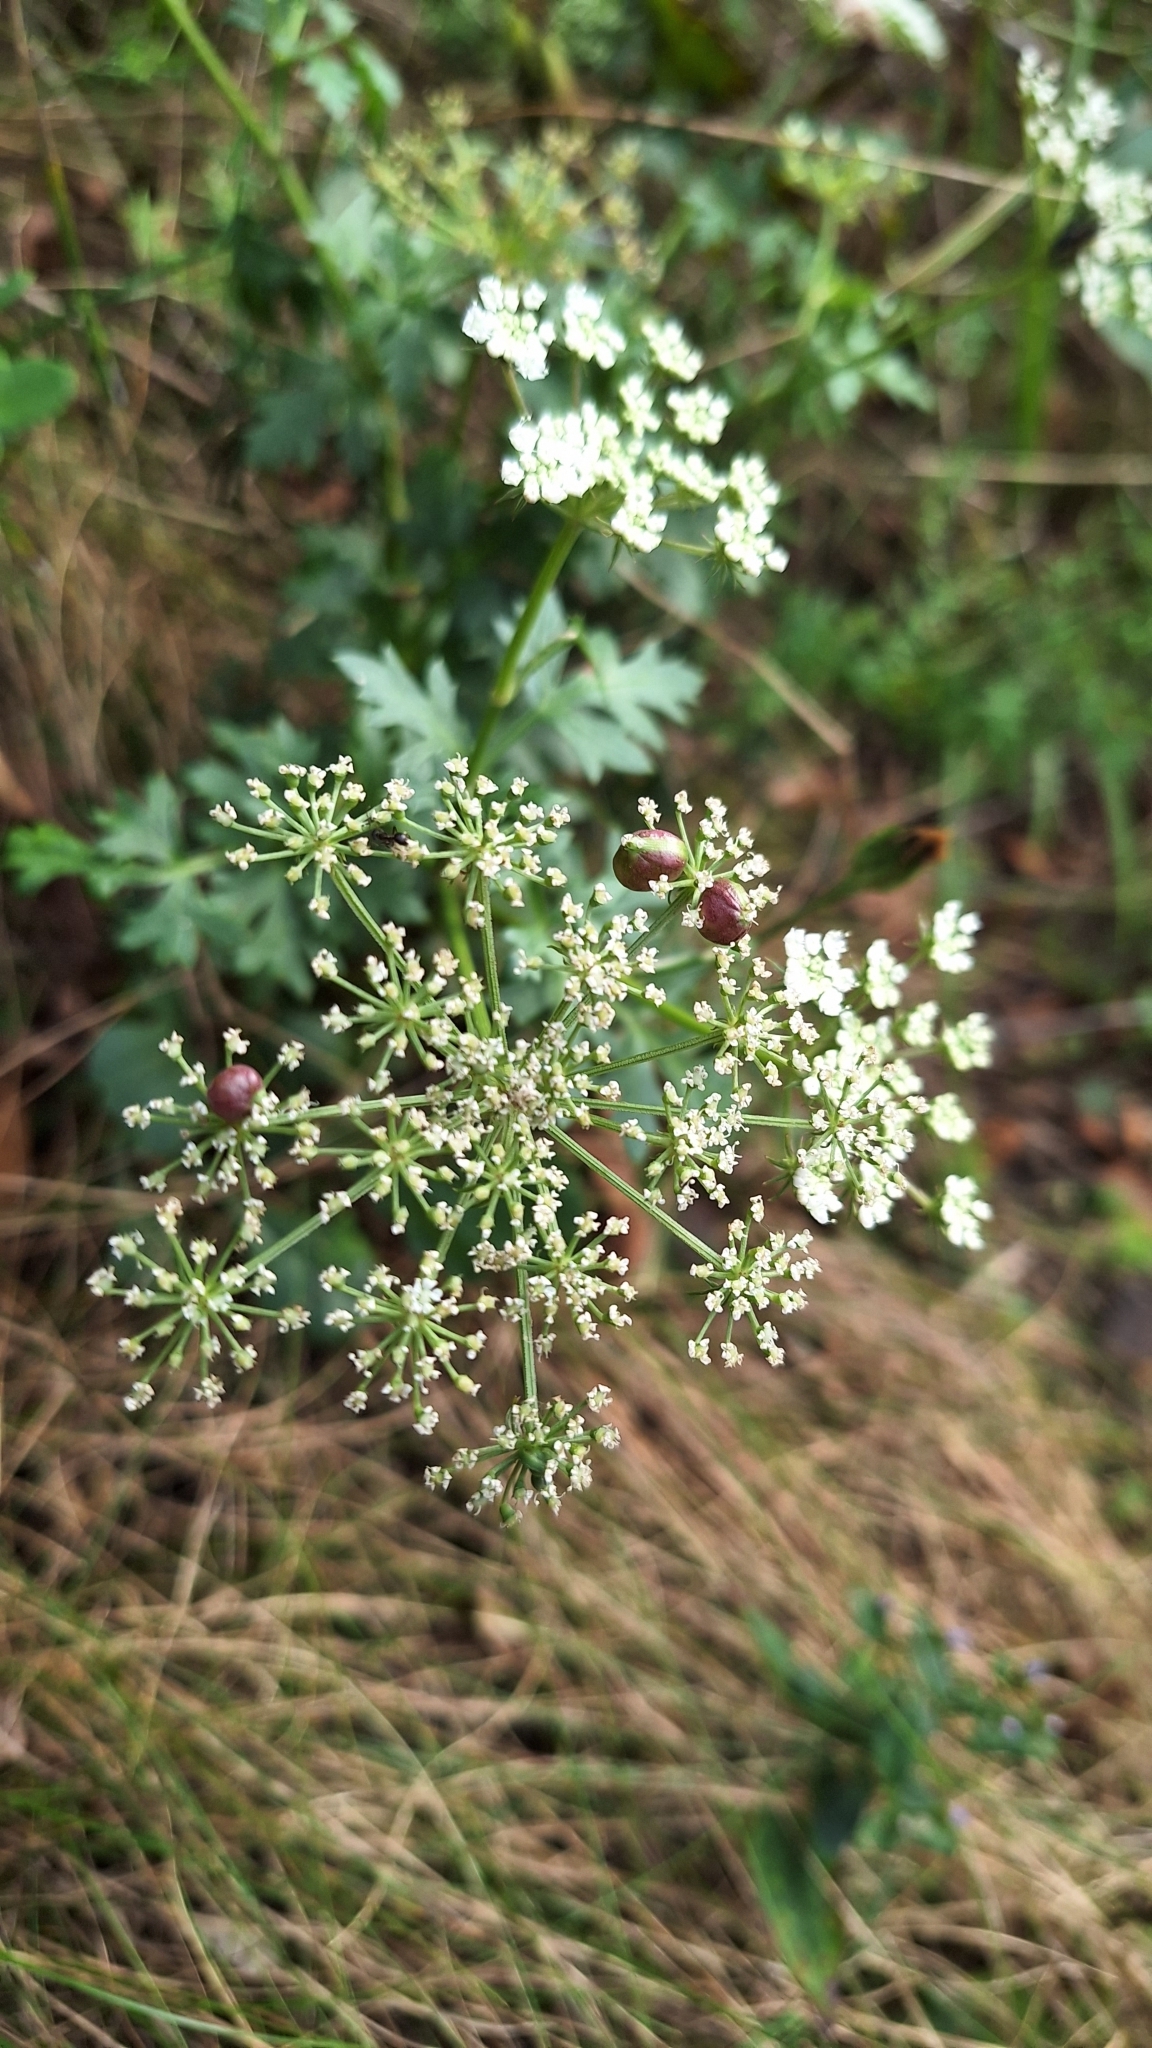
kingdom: Plantae
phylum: Tracheophyta
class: Magnoliopsida
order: Apiales
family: Apiaceae
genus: Kitagawia
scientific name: Kitagawia terebinthacea
